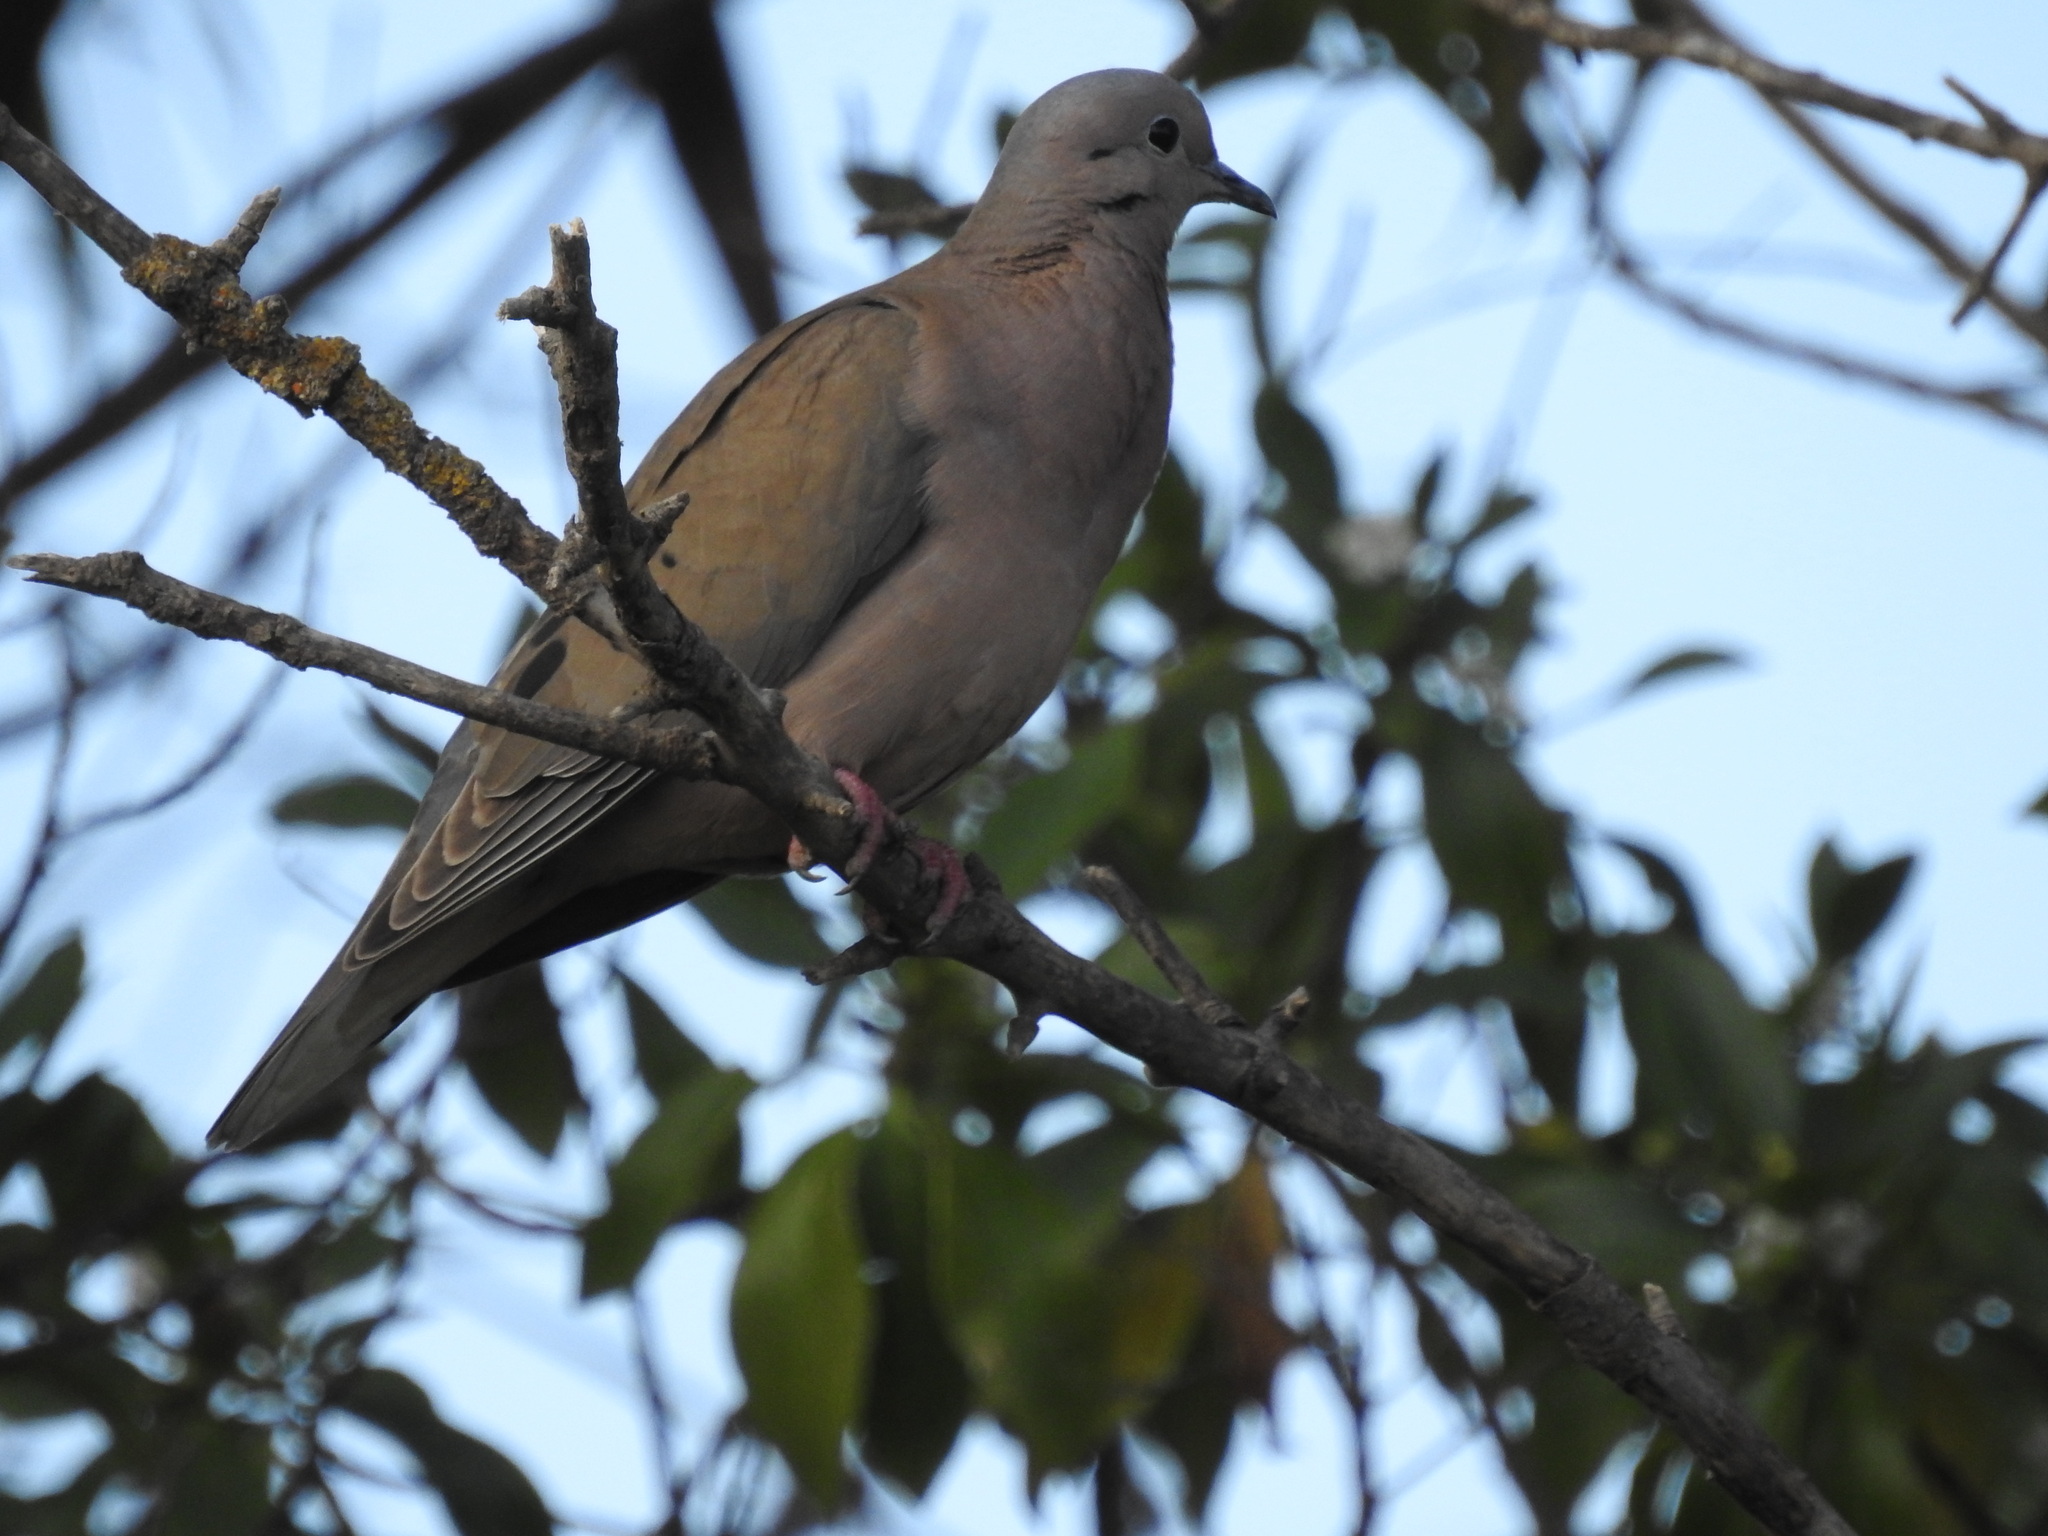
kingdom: Animalia
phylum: Chordata
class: Aves
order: Columbiformes
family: Columbidae
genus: Zenaida
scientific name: Zenaida auriculata
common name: Eared dove
